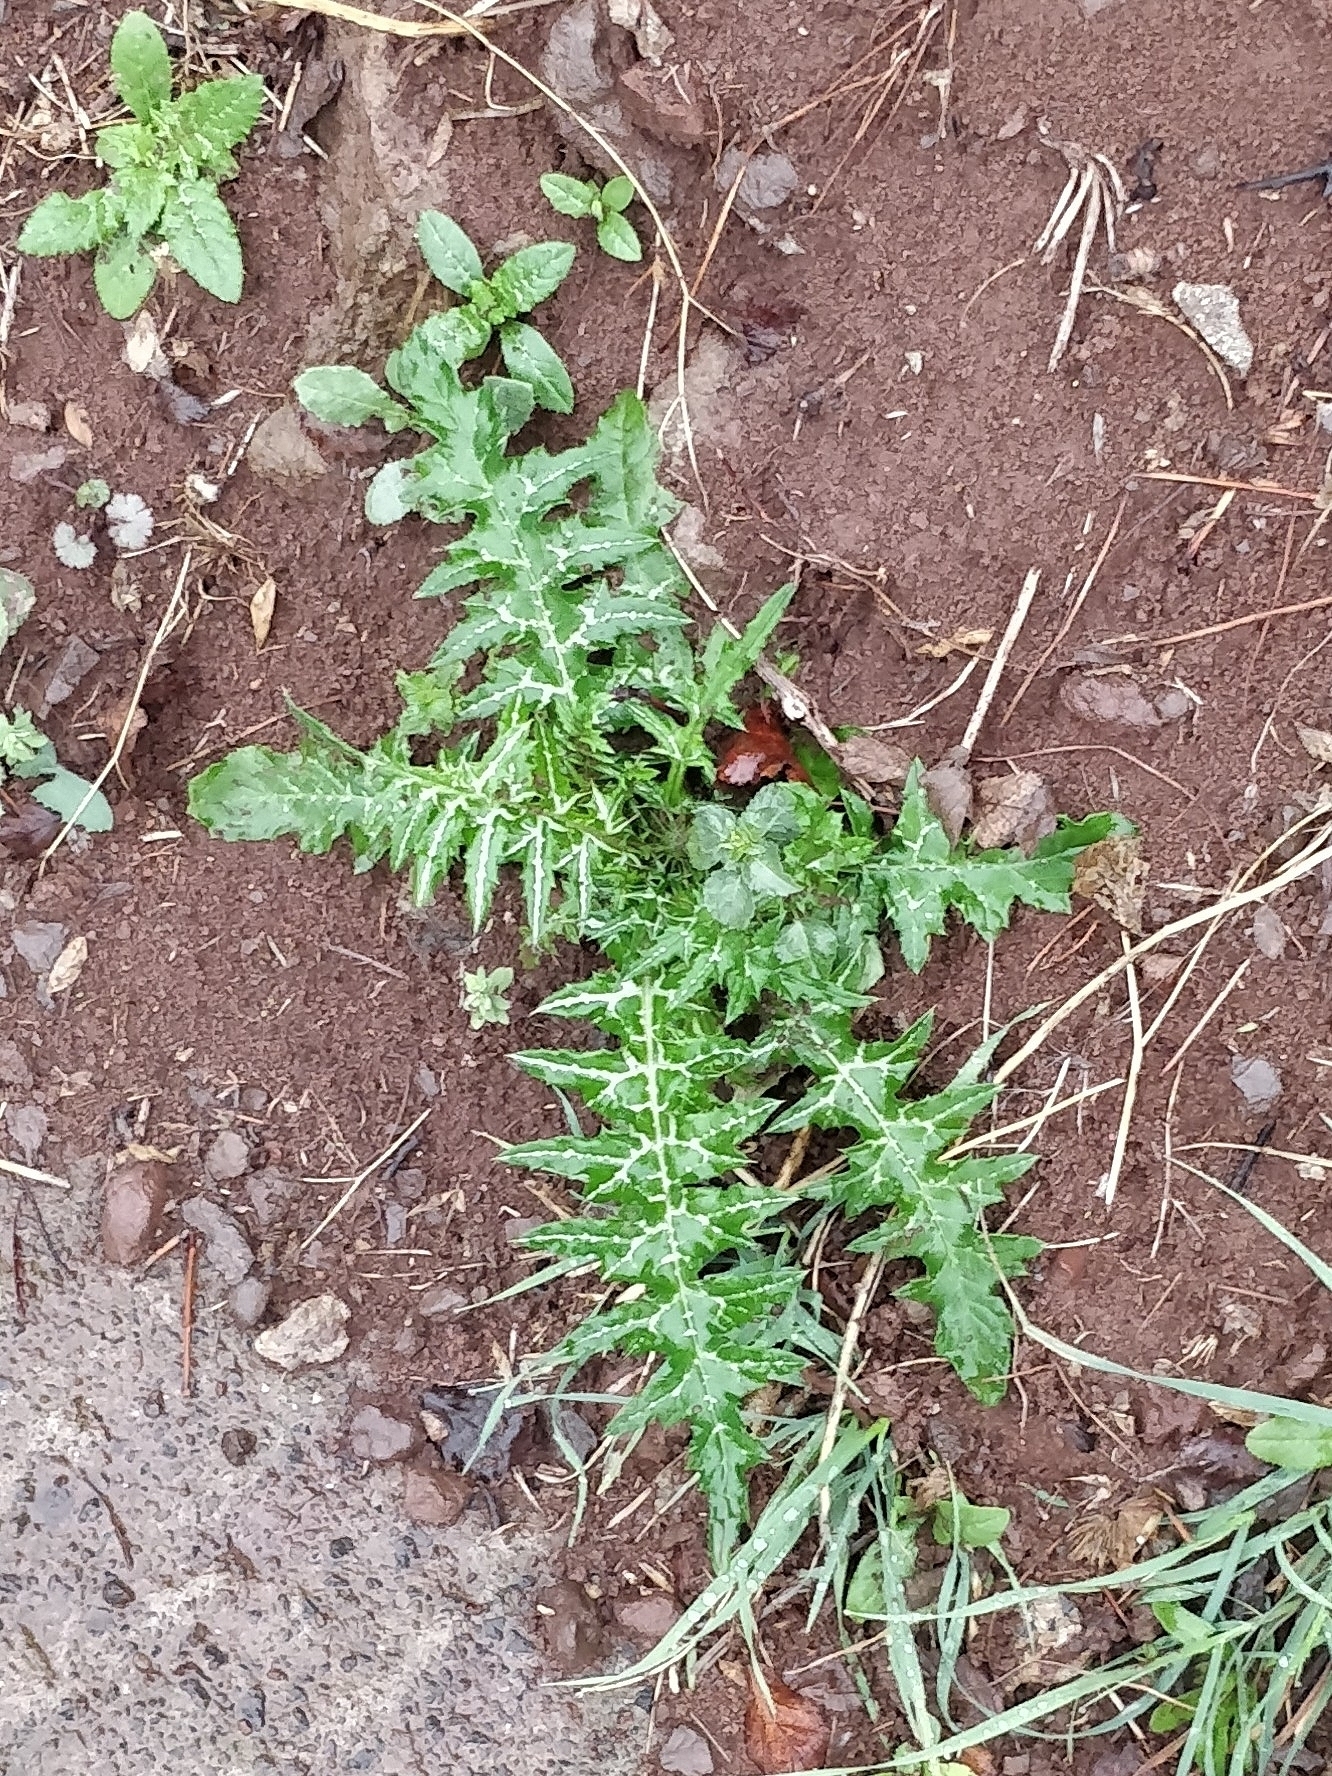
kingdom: Plantae
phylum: Tracheophyta
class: Magnoliopsida
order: Asterales
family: Asteraceae
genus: Galactites
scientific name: Galactites tomentosa
